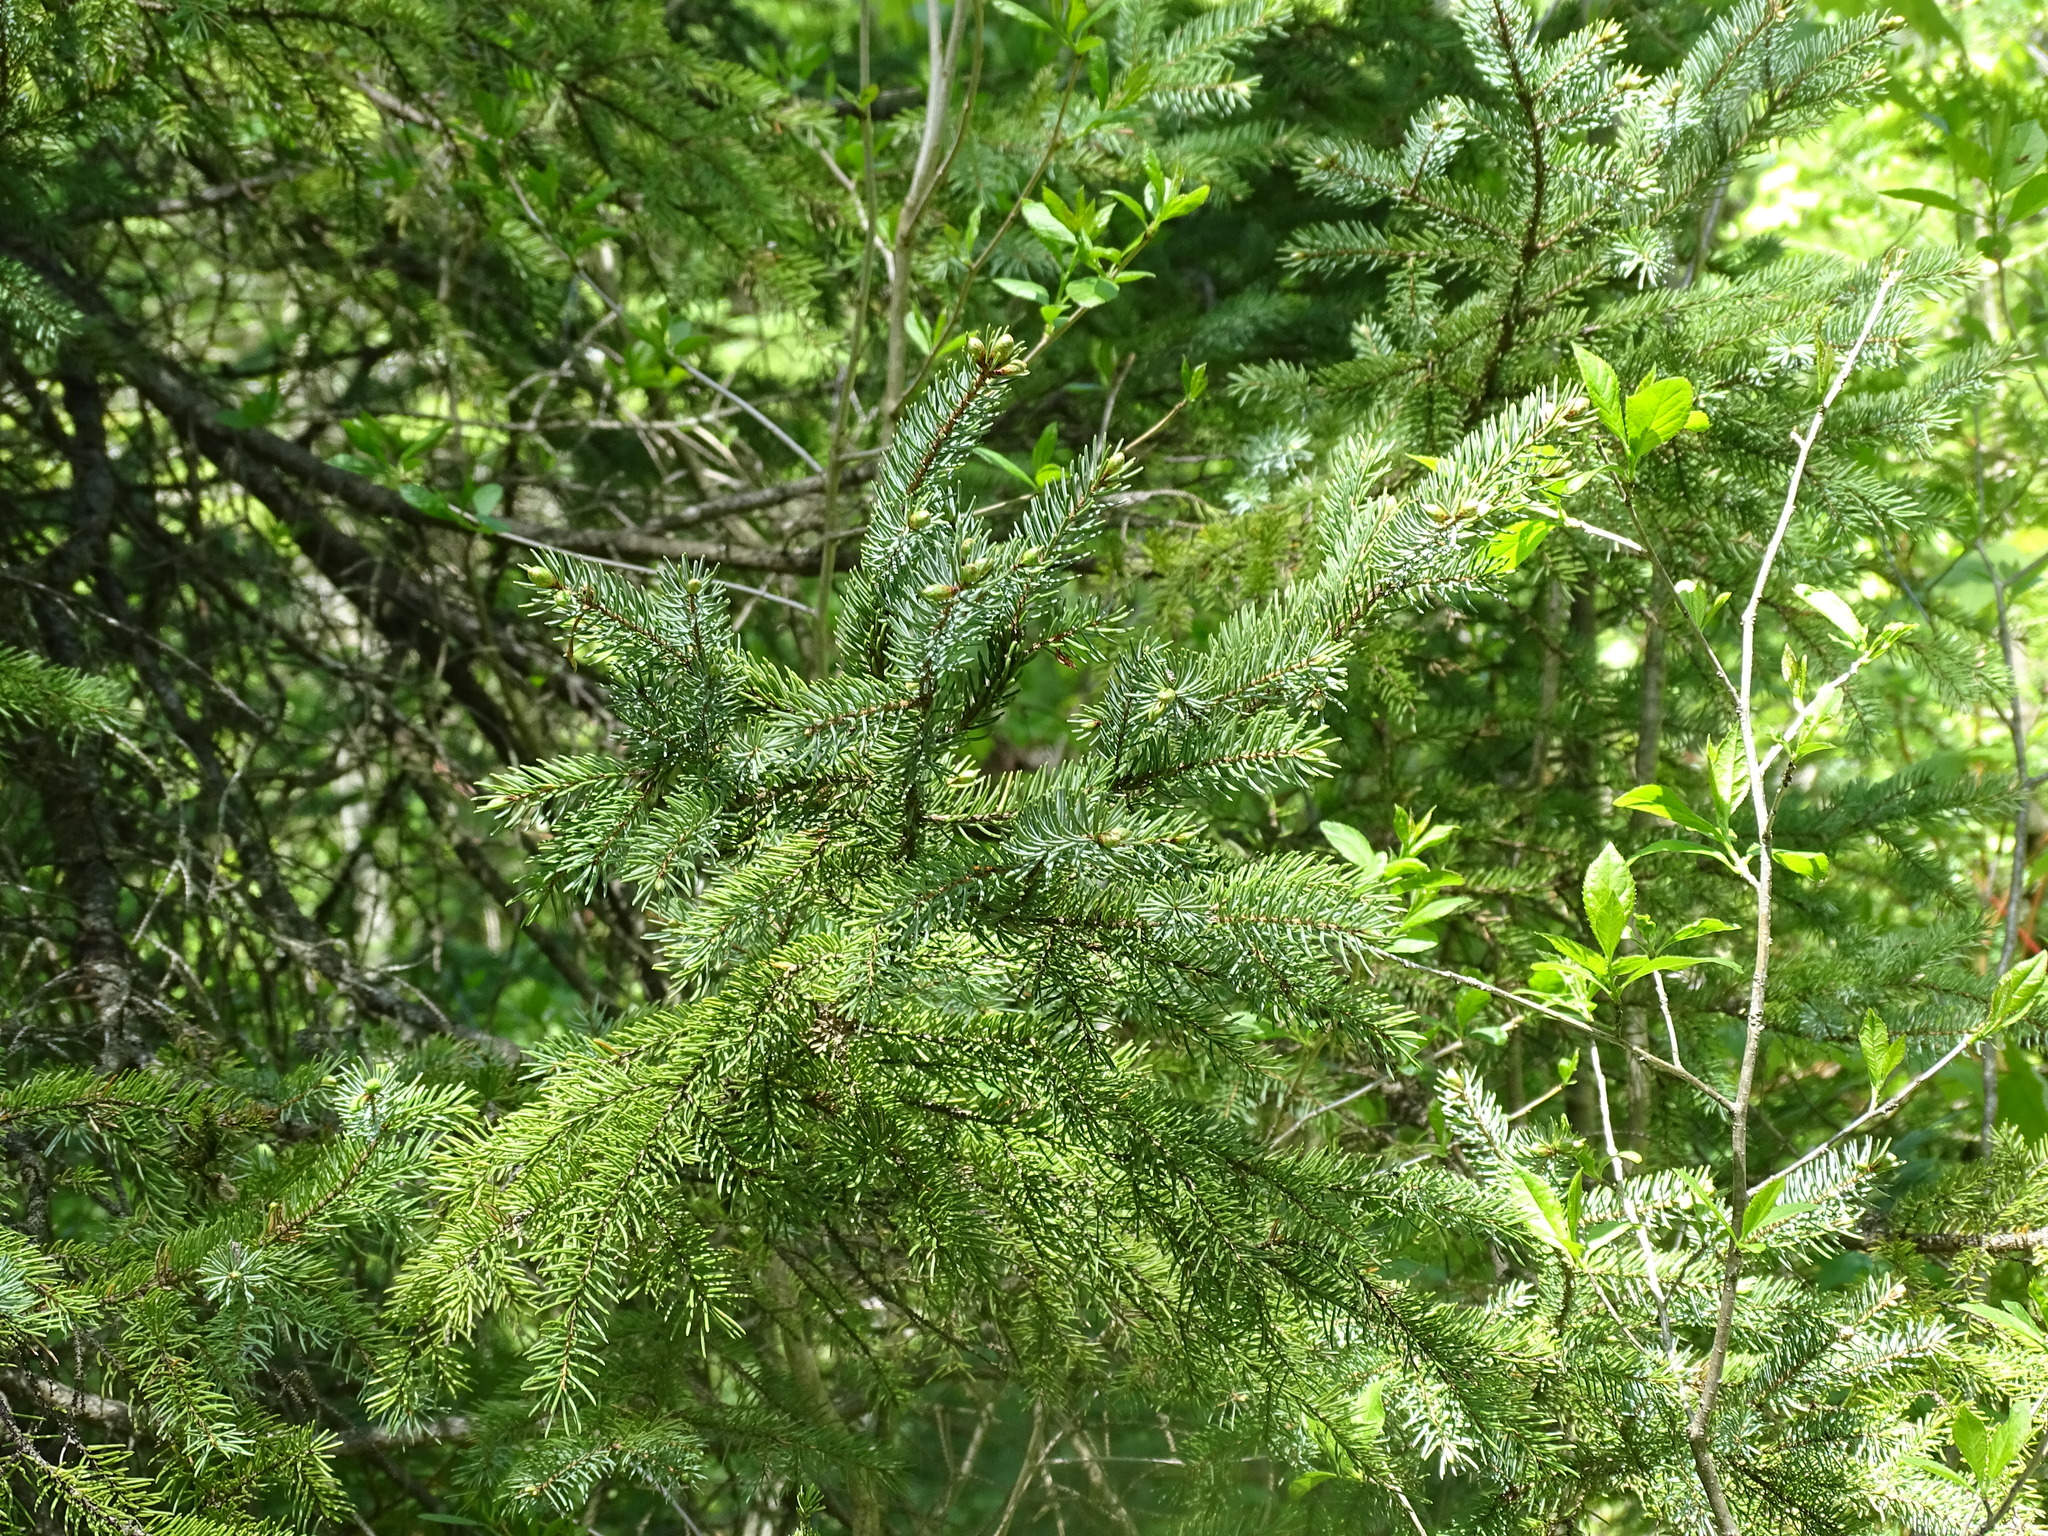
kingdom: Plantae
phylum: Tracheophyta
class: Pinopsida
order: Pinales
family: Pinaceae
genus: Picea
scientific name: Picea glauca
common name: White spruce
